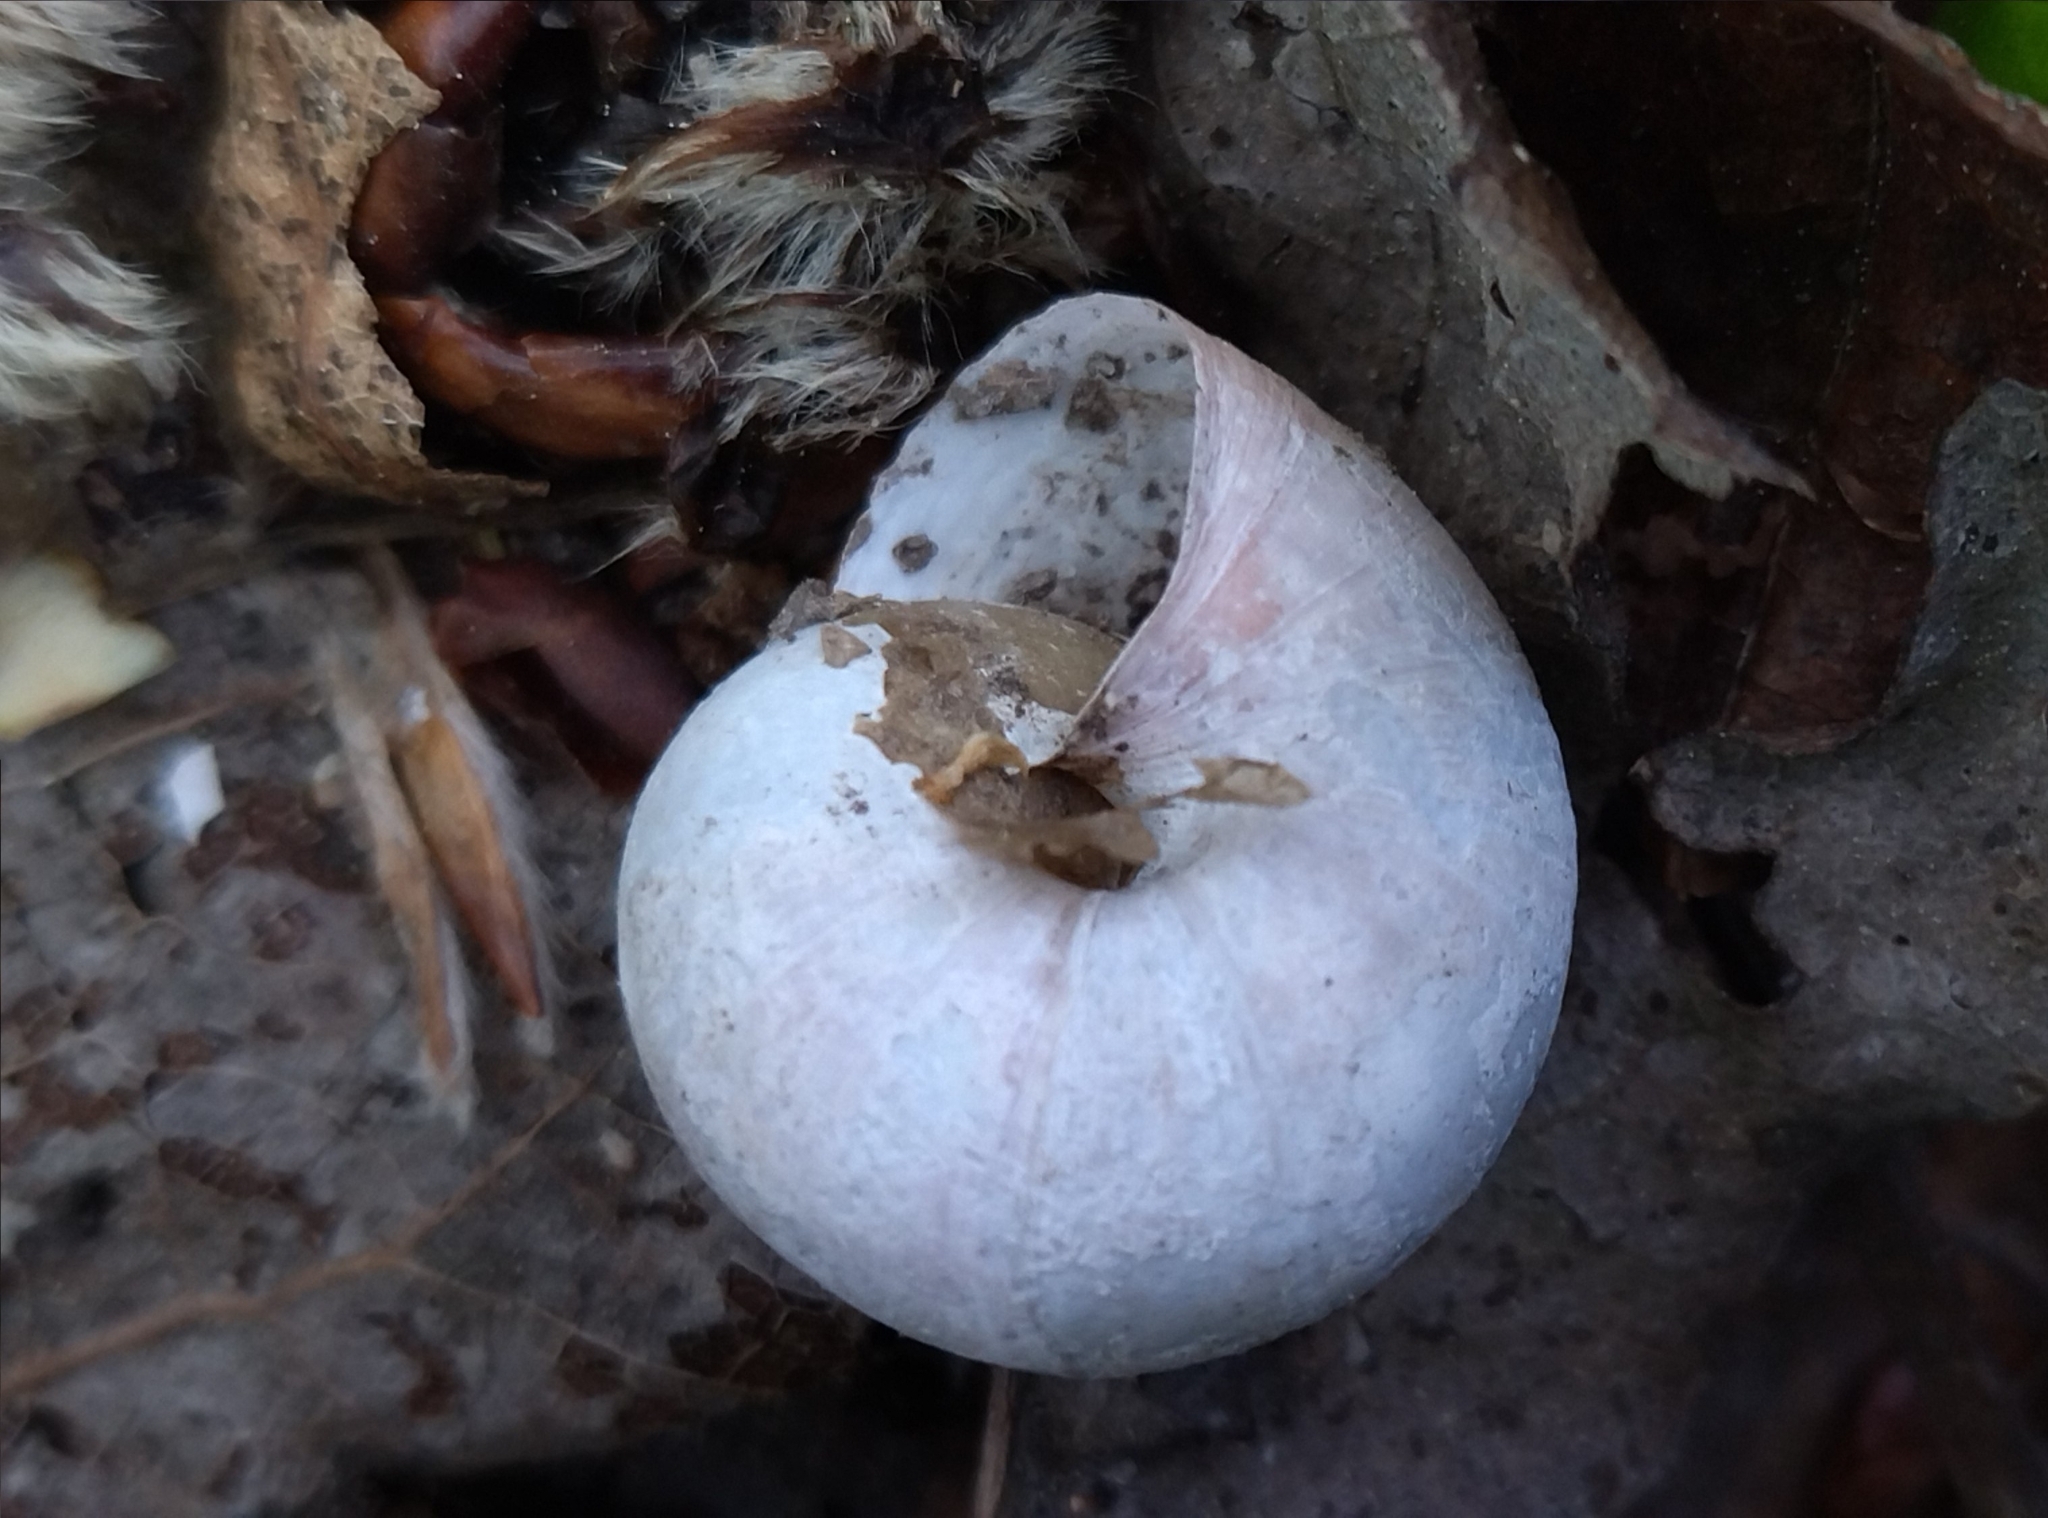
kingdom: Animalia
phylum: Mollusca
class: Gastropoda
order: Stylommatophora
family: Camaenidae
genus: Fruticicola
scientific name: Fruticicola fruticum
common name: Bush snail
